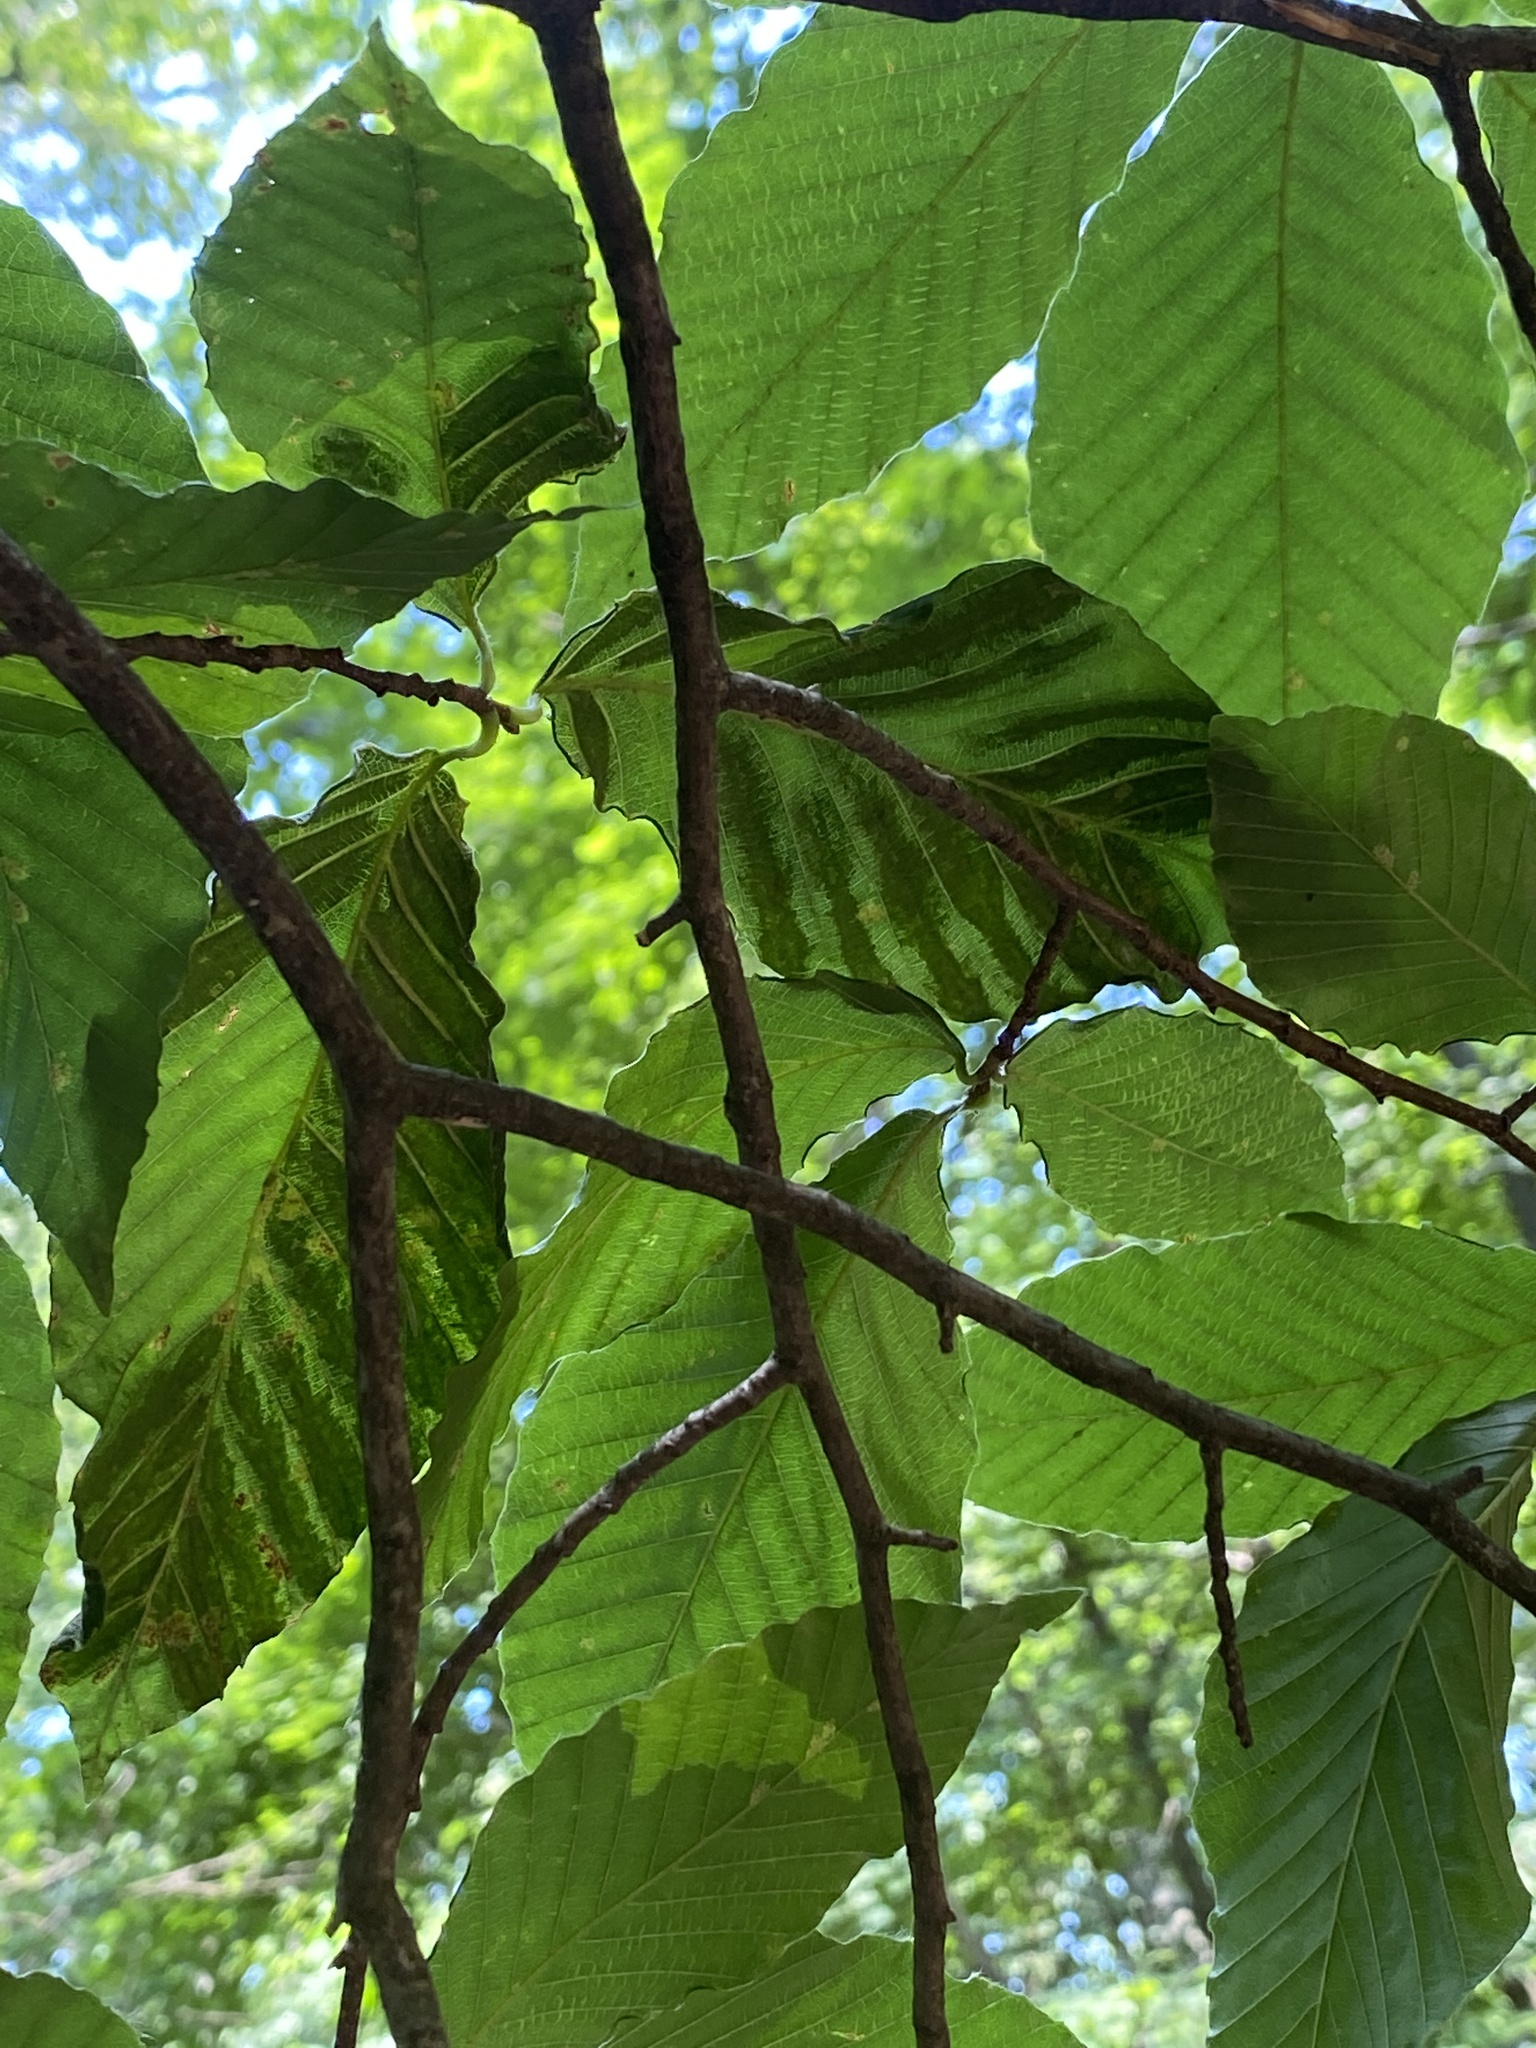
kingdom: Animalia
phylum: Nematoda
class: Chromadorea
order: Rhabditida
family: Anguinidae
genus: Litylenchus
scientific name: Litylenchus crenatae
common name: Beech leaf disease
